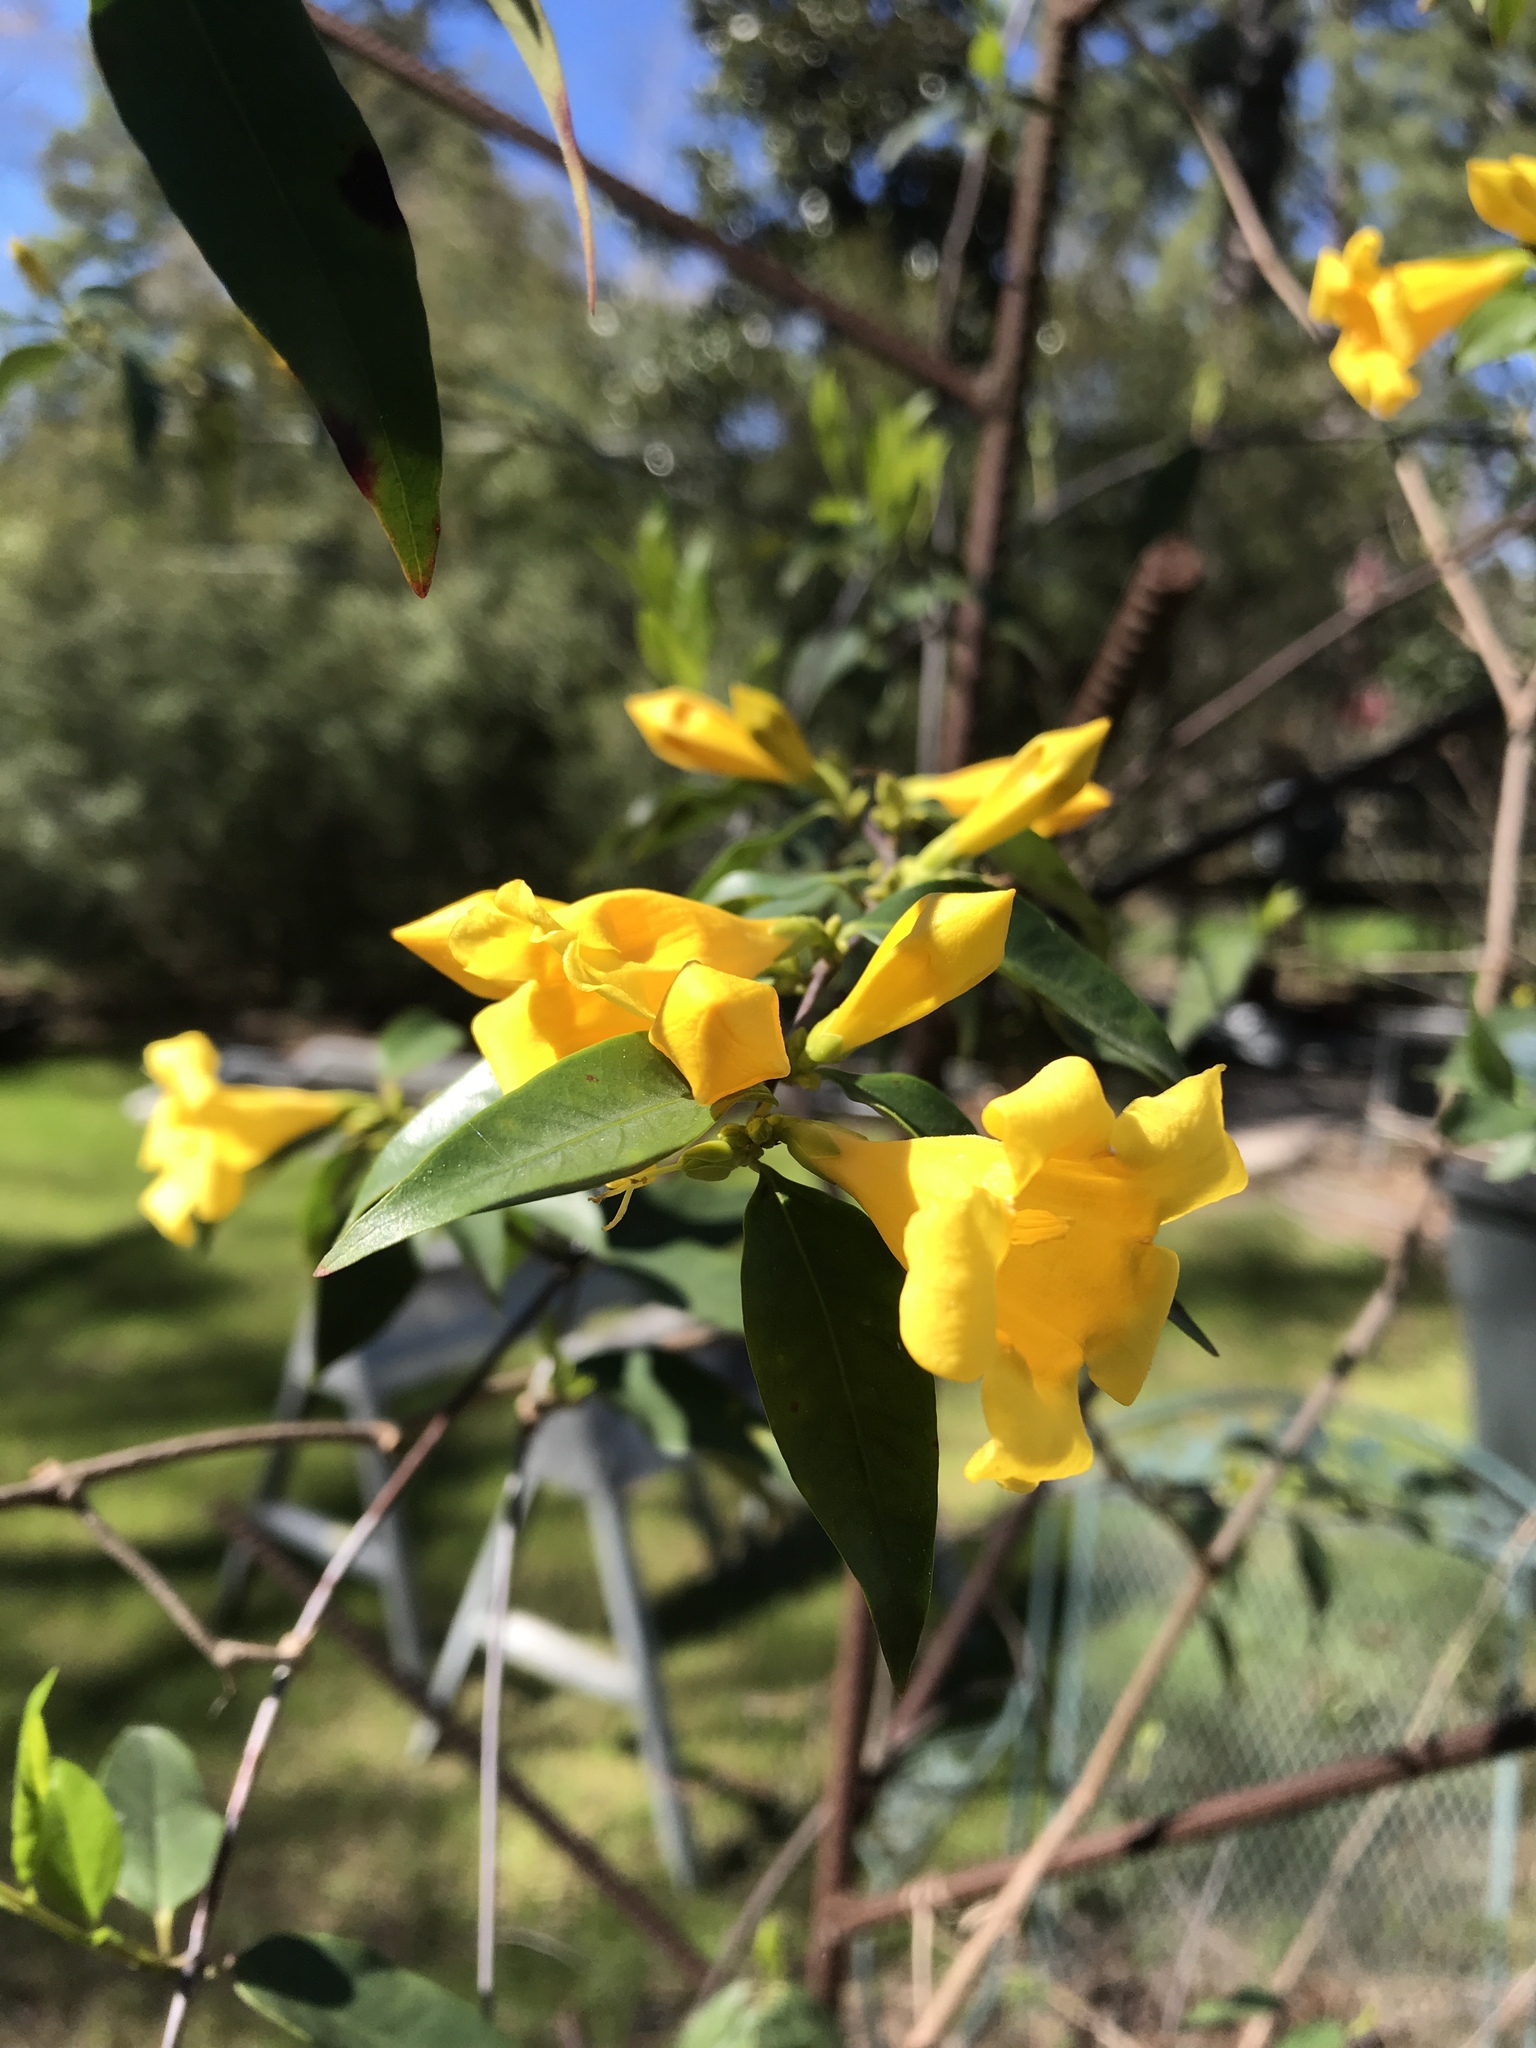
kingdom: Plantae
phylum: Tracheophyta
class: Magnoliopsida
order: Gentianales
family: Gelsemiaceae
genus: Gelsemium
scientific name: Gelsemium sempervirens
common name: Carolina-jasmine
